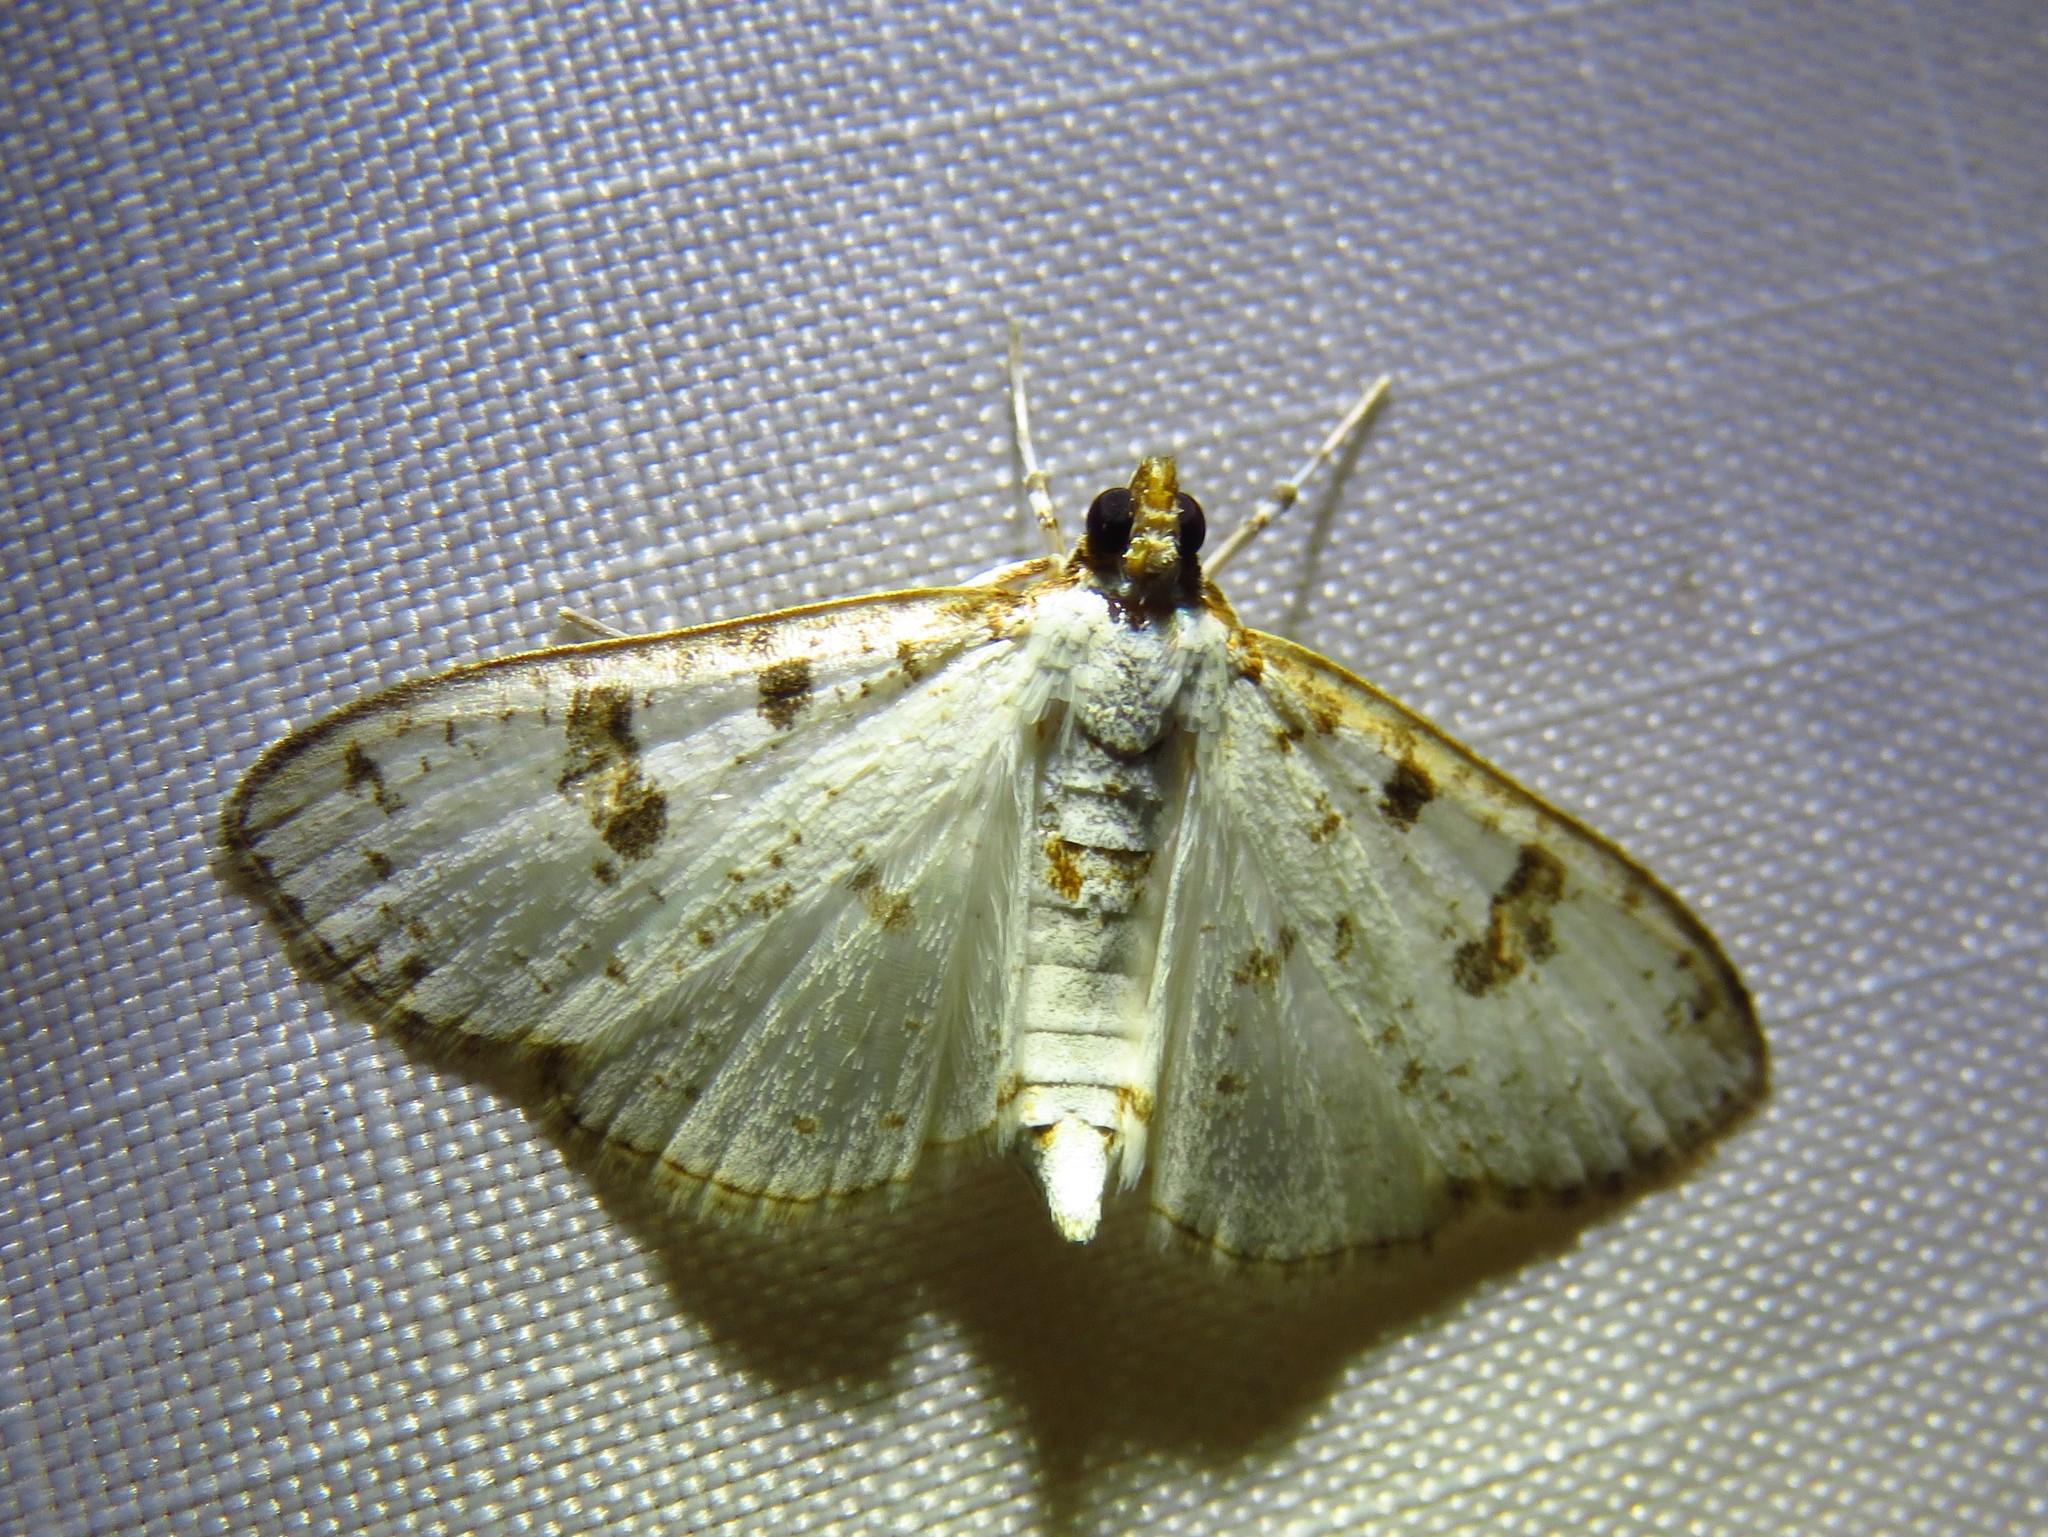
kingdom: Animalia
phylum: Arthropoda
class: Insecta
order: Lepidoptera
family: Crambidae
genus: Palpita
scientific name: Palpita illibalis
